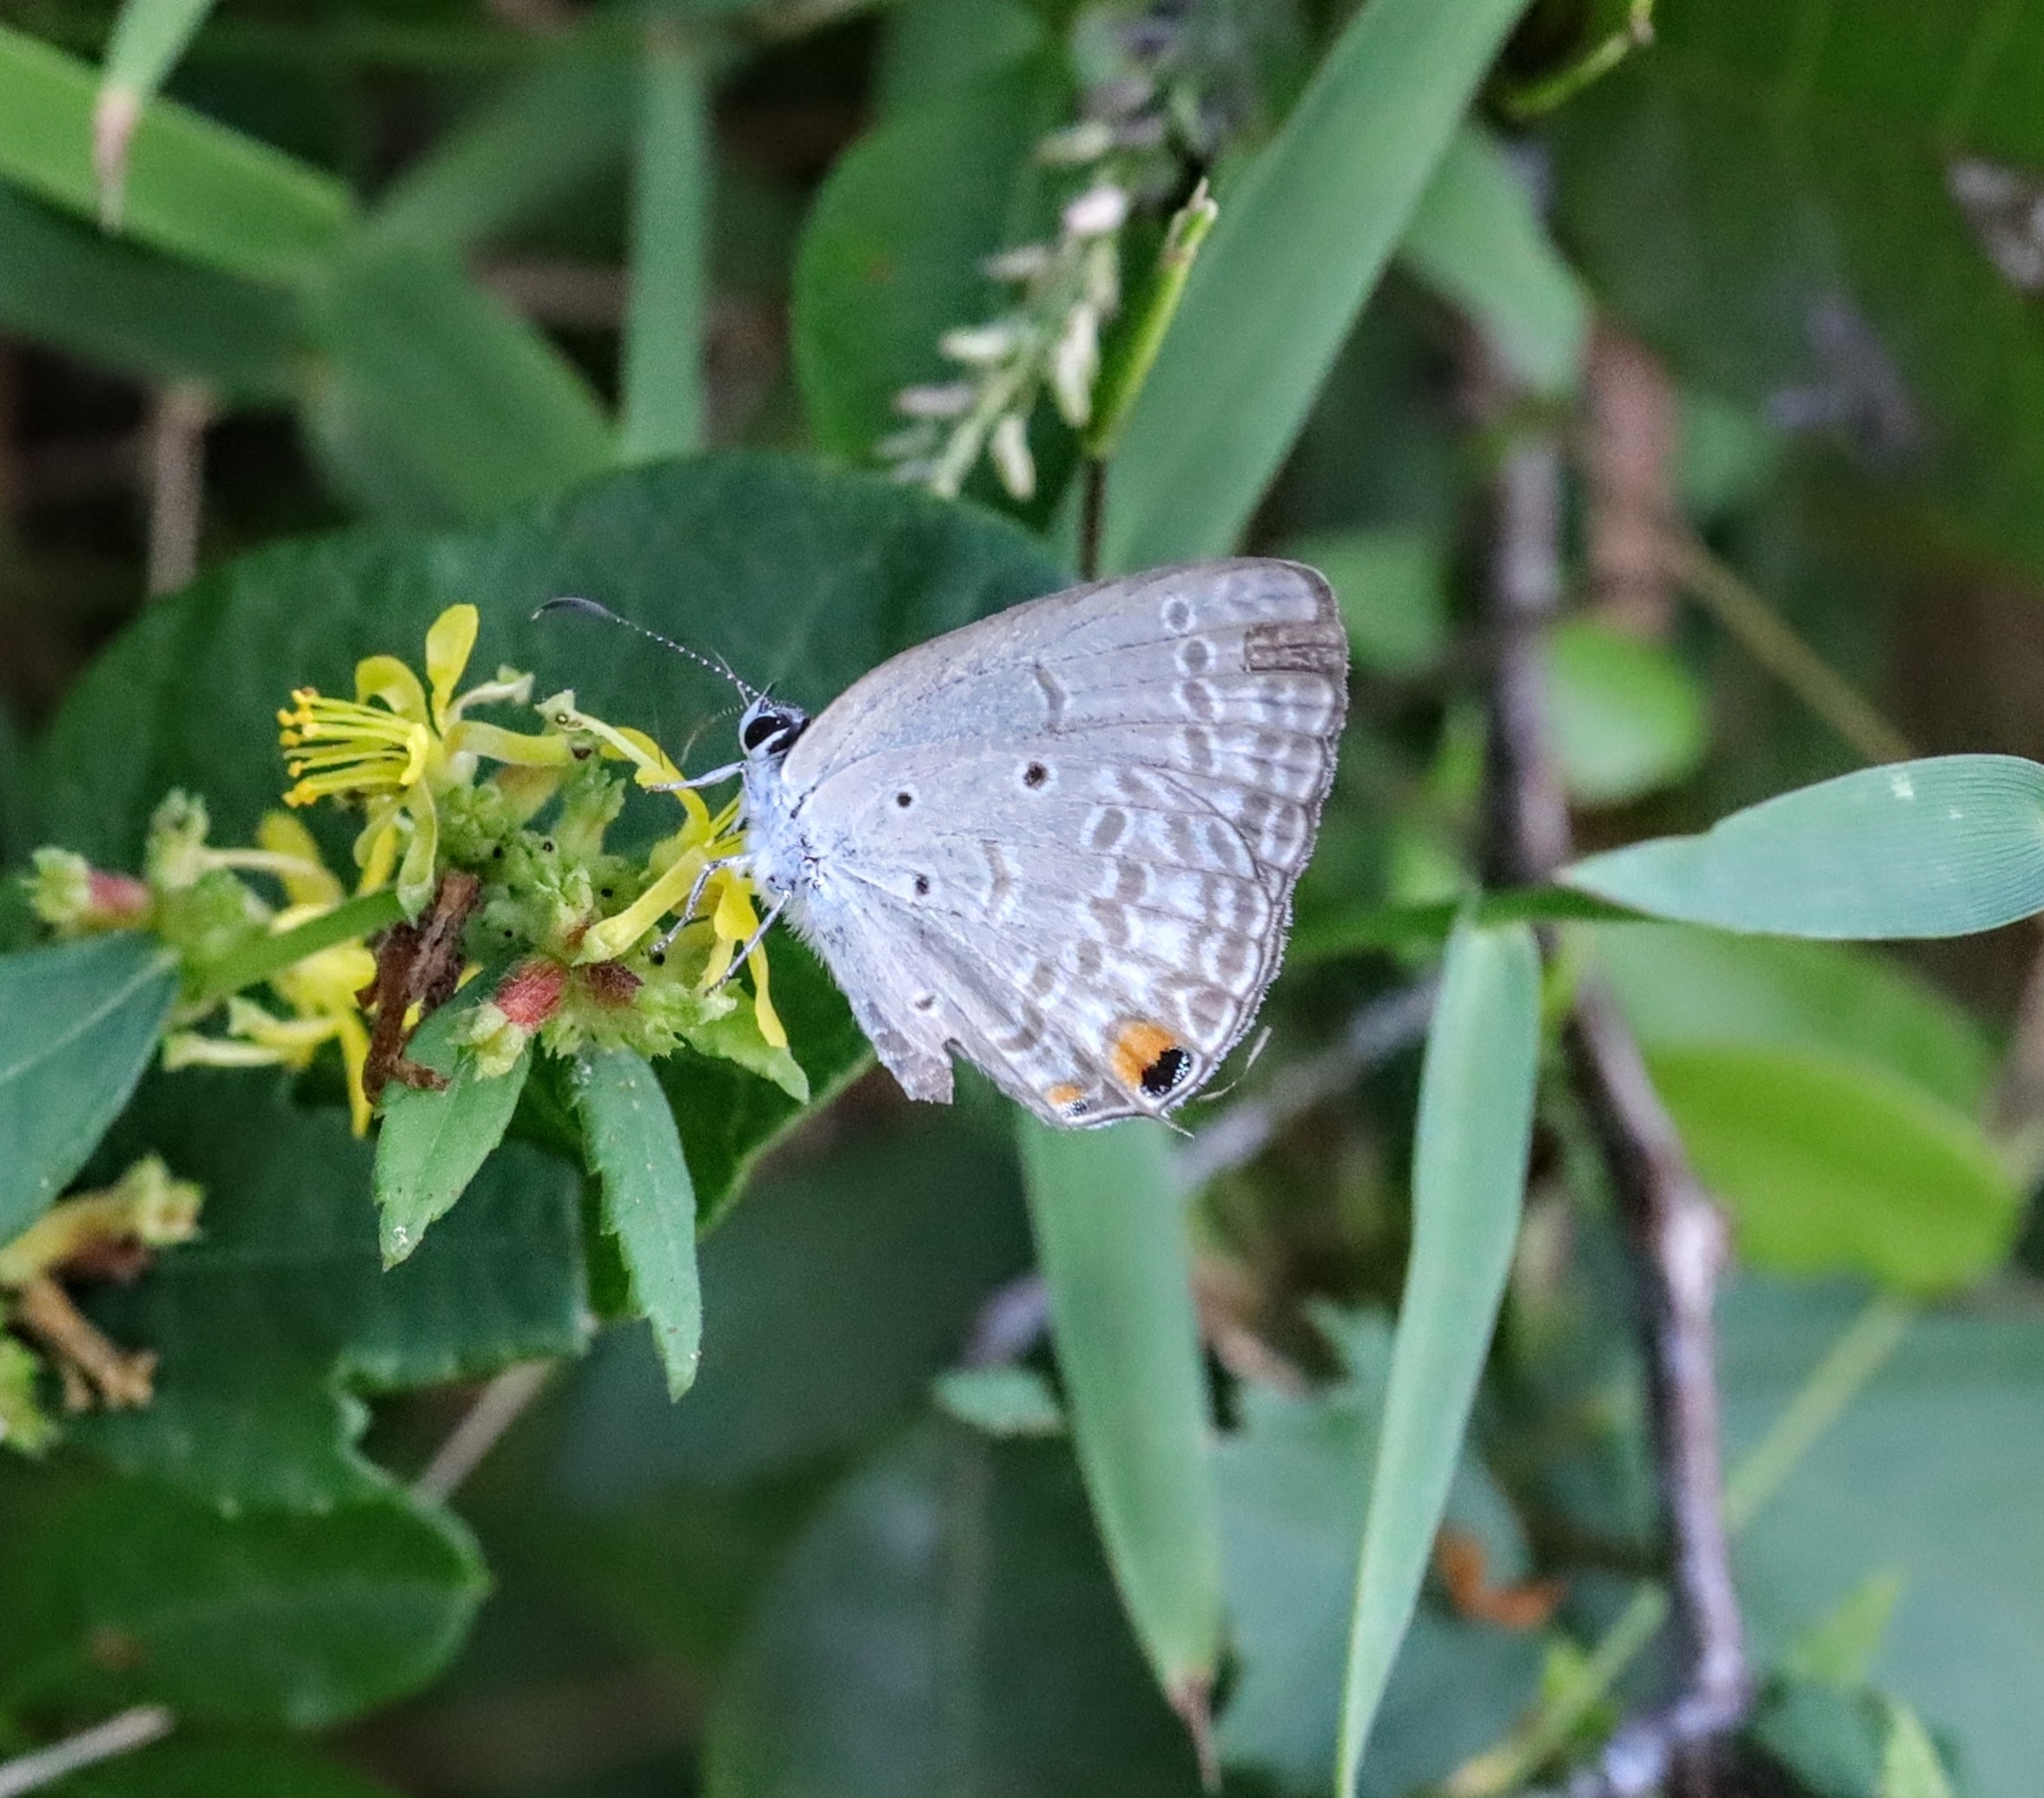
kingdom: Animalia
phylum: Arthropoda
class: Insecta
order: Lepidoptera
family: Lycaenidae
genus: Euchrysops
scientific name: Euchrysops barkeri
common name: Barker's smoky blue
